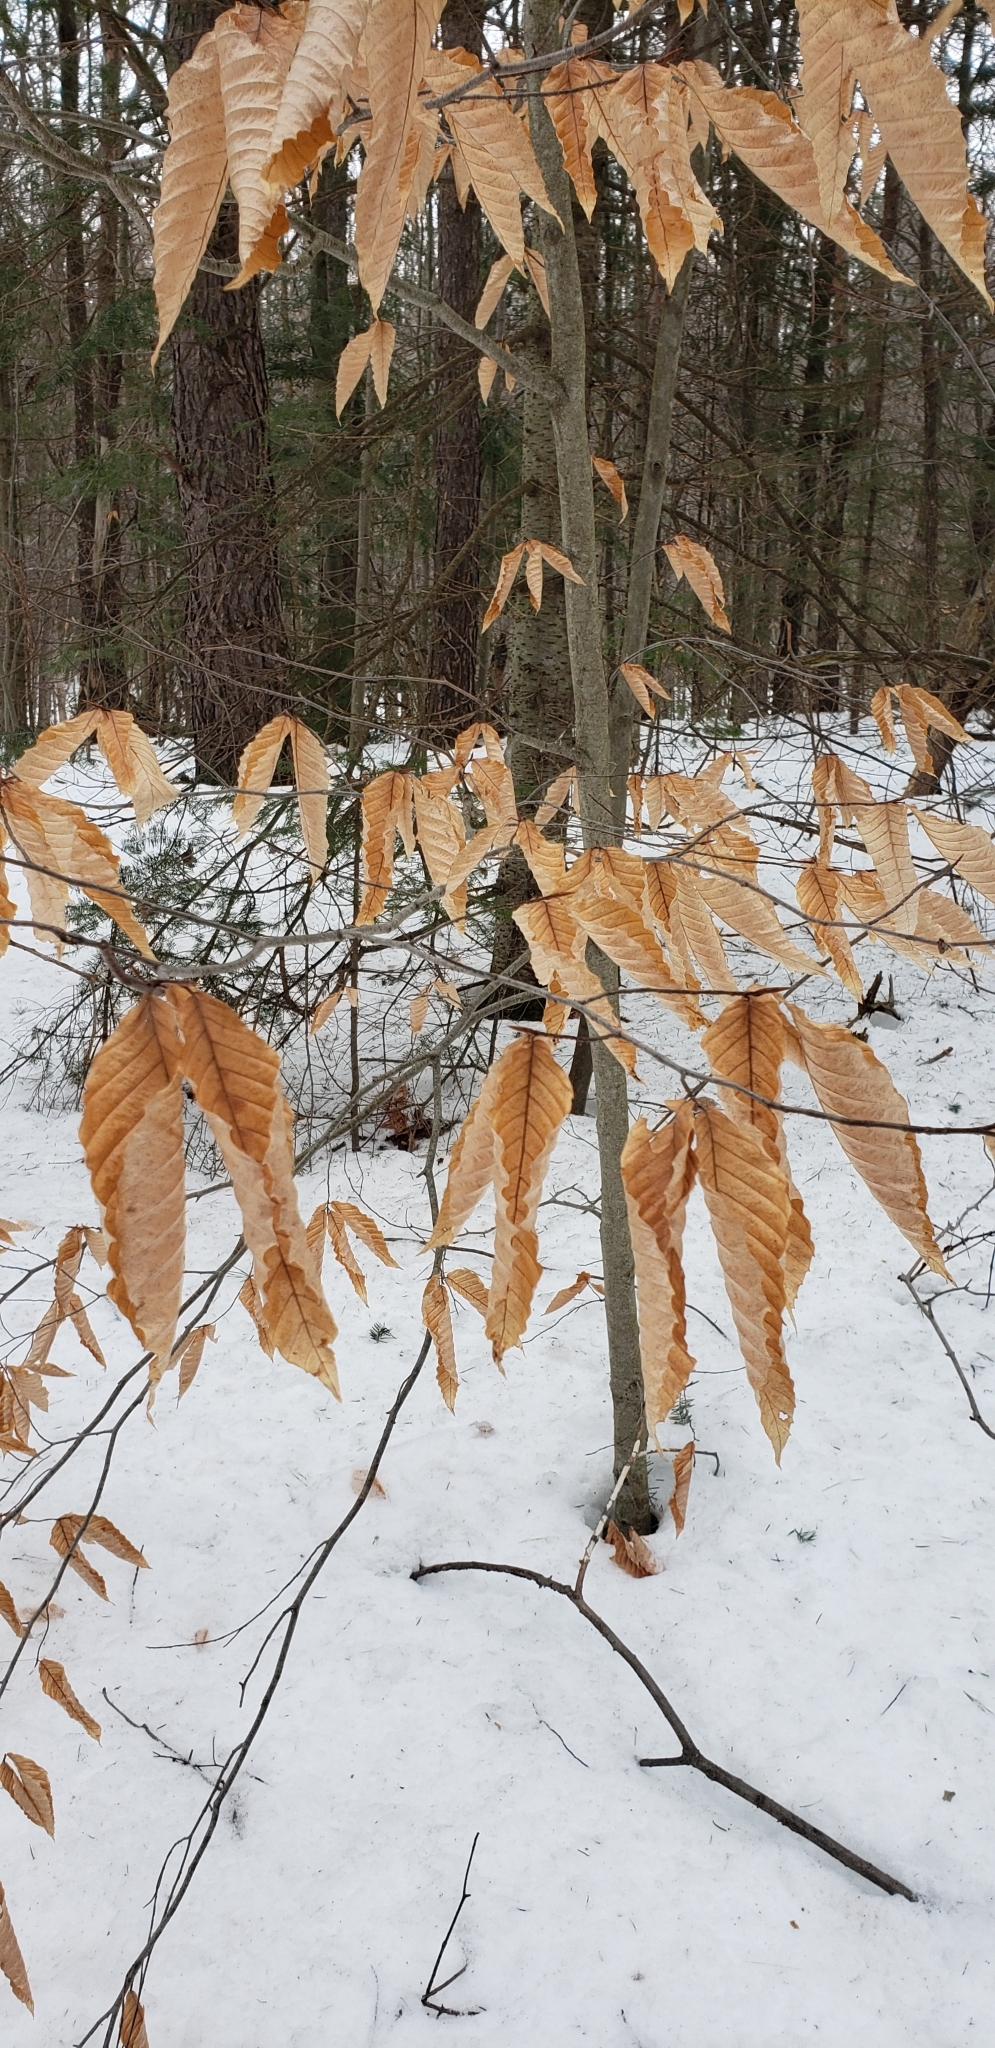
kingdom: Plantae
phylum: Tracheophyta
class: Magnoliopsida
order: Fagales
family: Fagaceae
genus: Fagus
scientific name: Fagus grandifolia
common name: American beech
